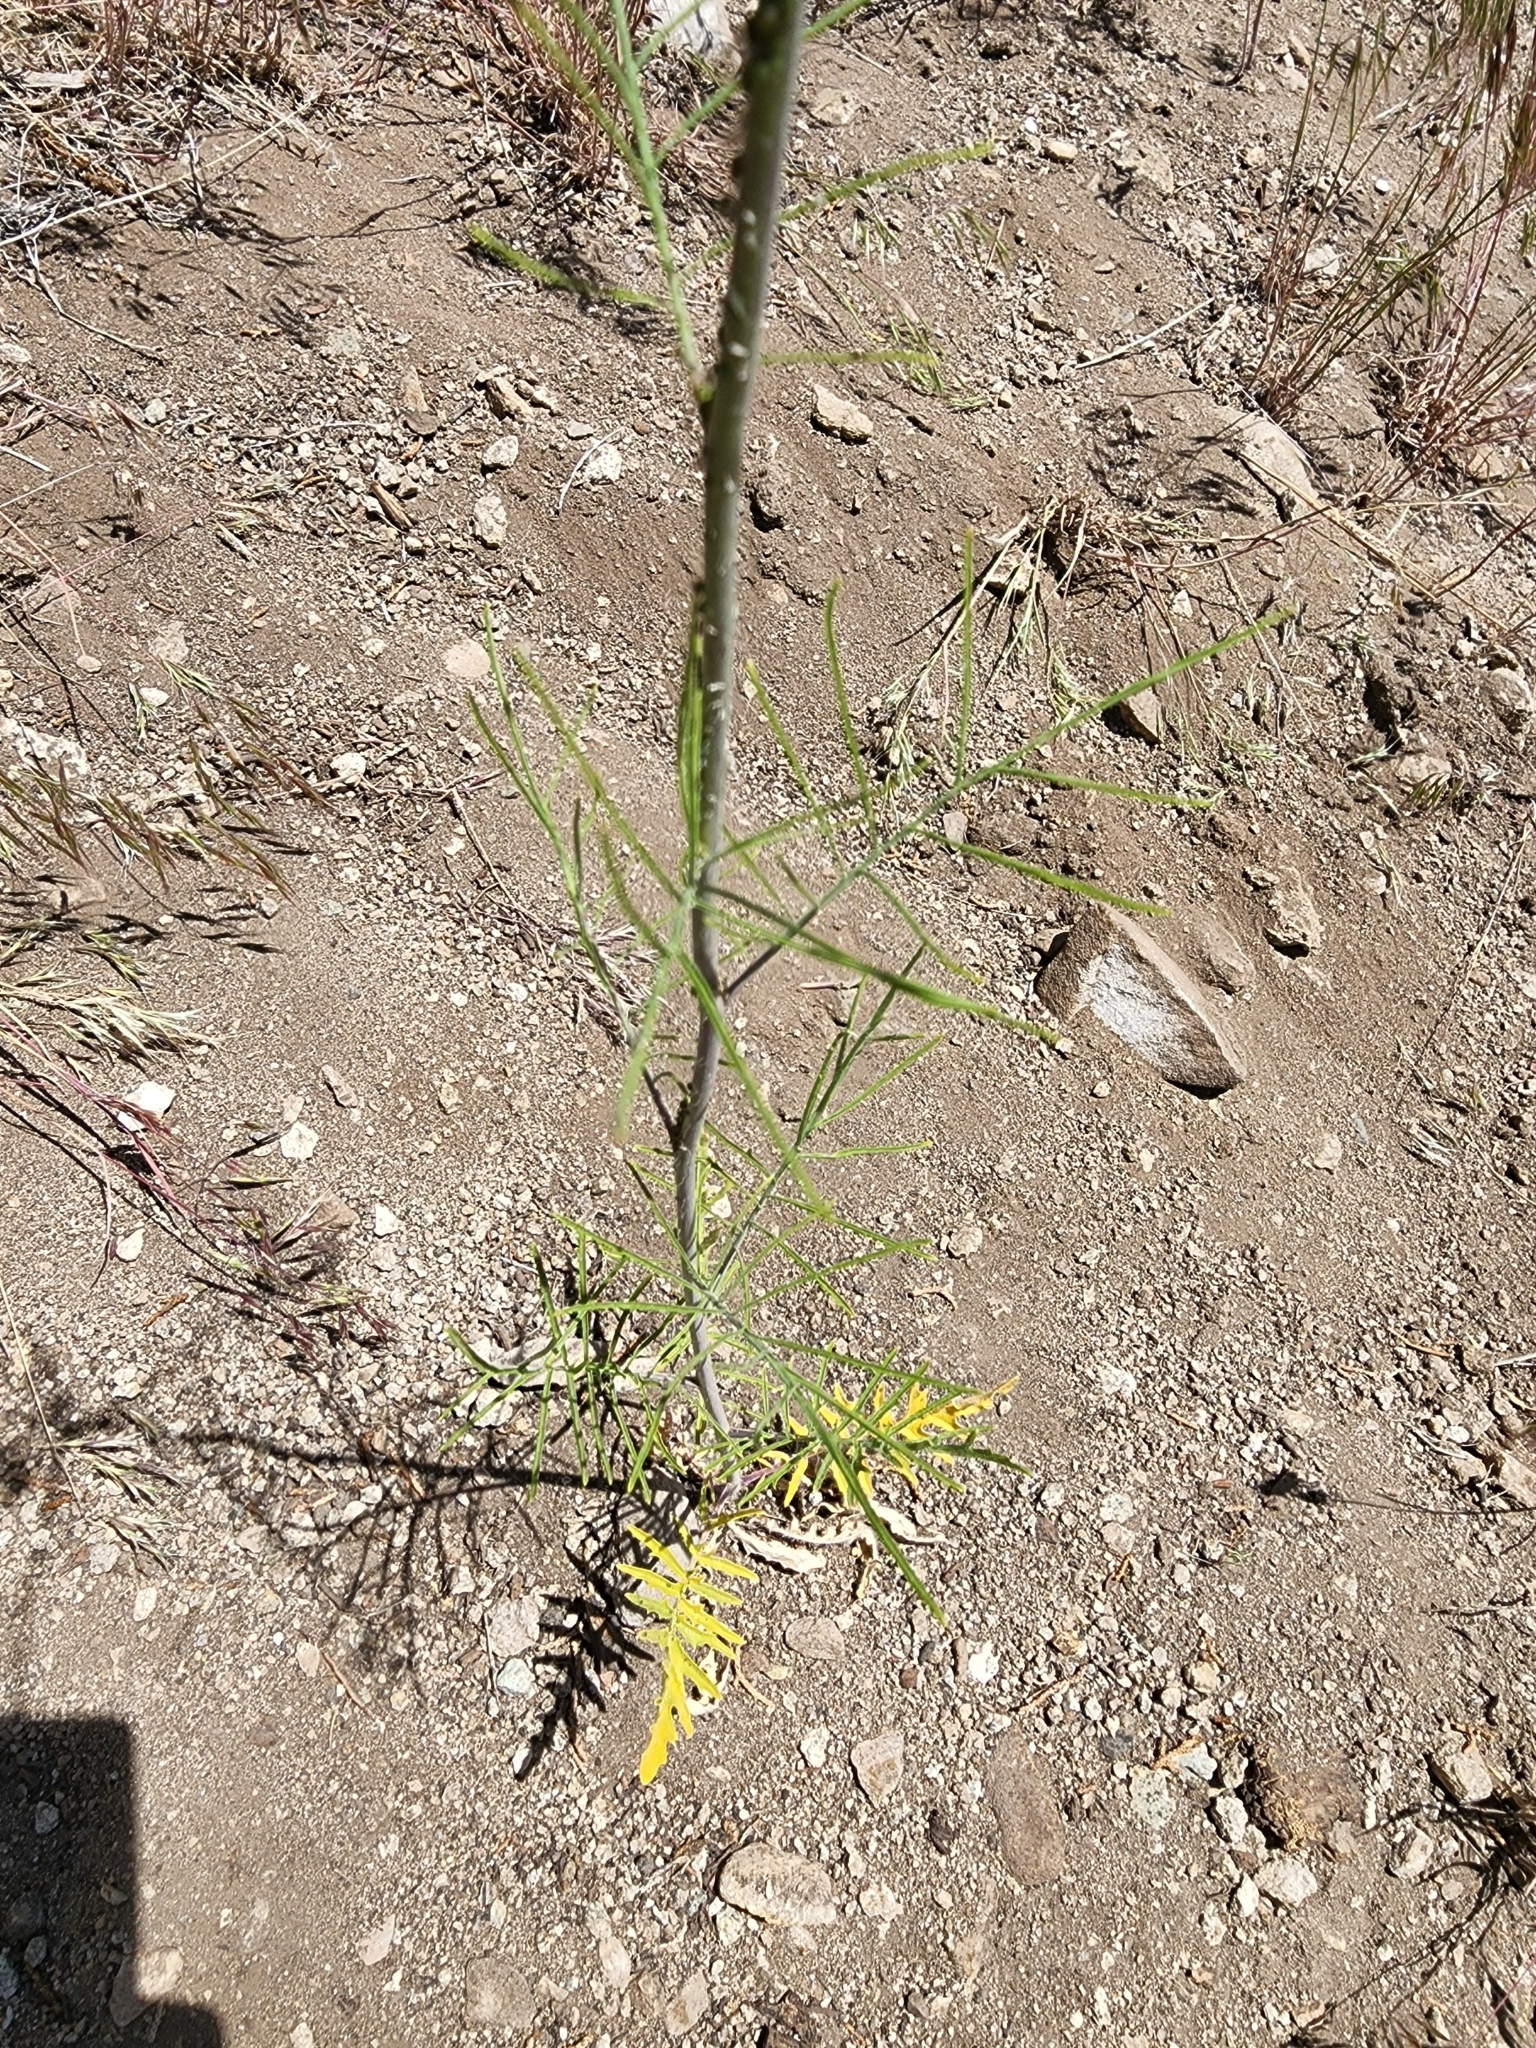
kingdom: Plantae
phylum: Tracheophyta
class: Magnoliopsida
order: Brassicales
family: Brassicaceae
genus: Sisymbrium
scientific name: Sisymbrium altissimum
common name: Tall rocket
